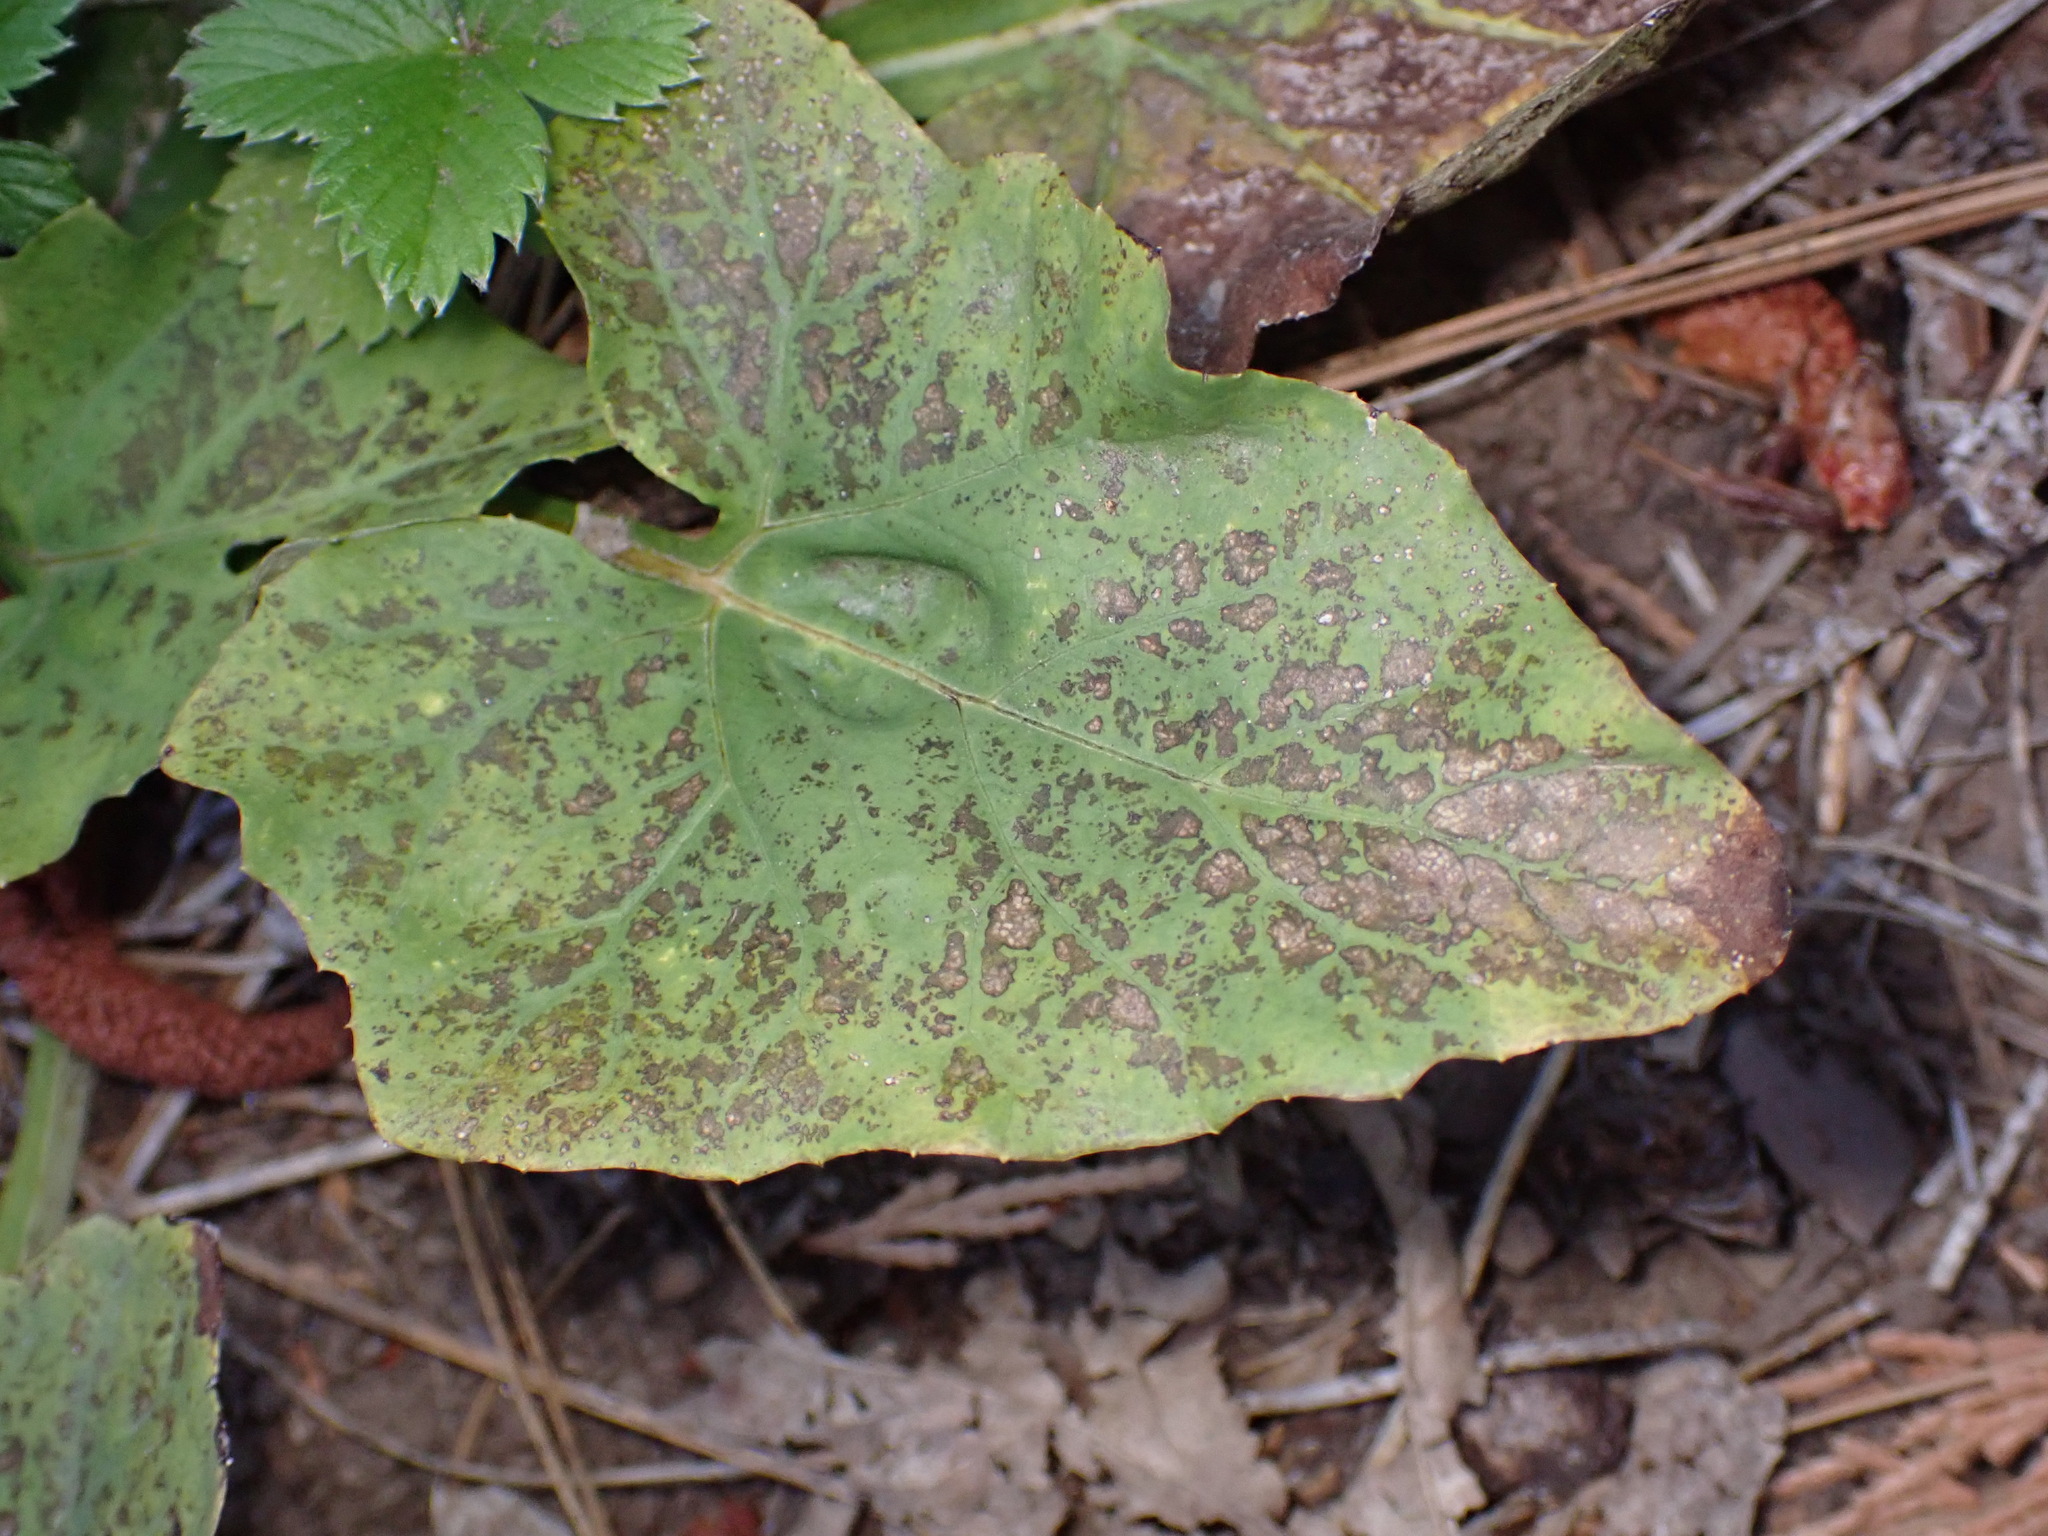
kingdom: Plantae
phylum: Tracheophyta
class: Magnoliopsida
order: Asterales
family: Asteraceae
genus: Adenocaulon
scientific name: Adenocaulon bicolor
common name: Trailplant
